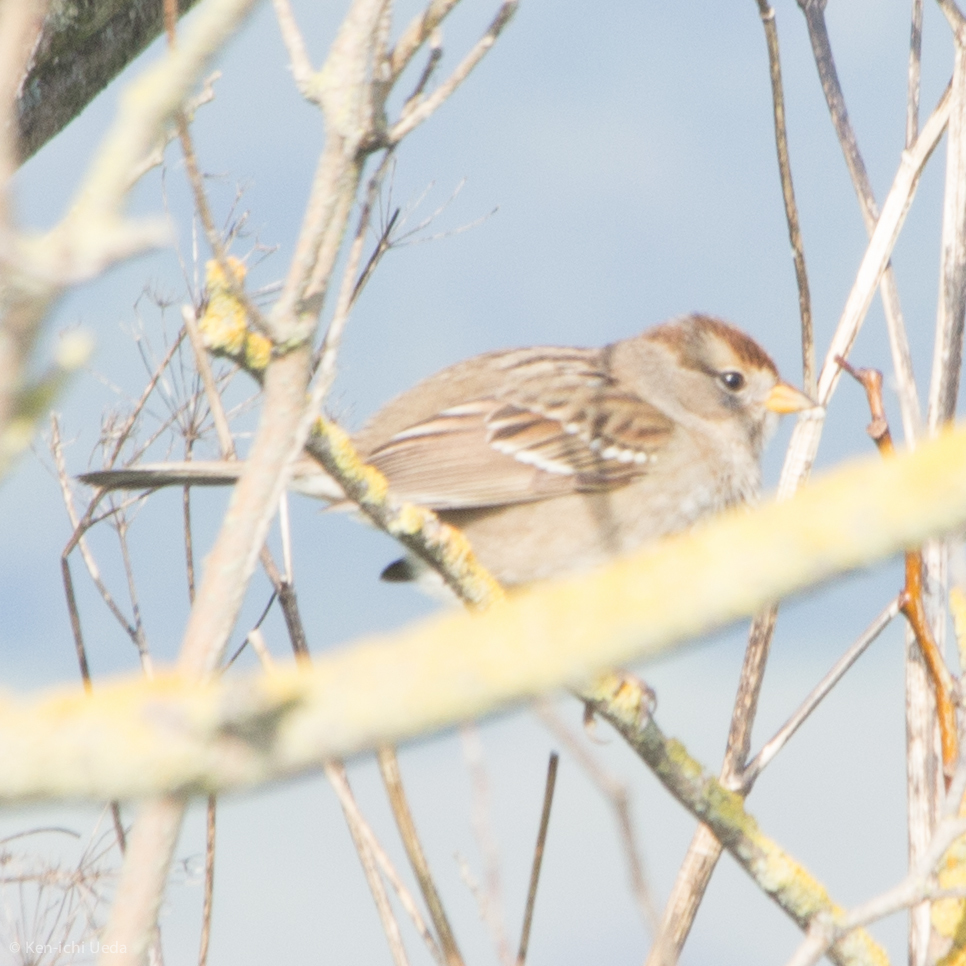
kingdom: Animalia
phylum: Chordata
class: Aves
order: Passeriformes
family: Passerellidae
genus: Zonotrichia
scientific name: Zonotrichia leucophrys
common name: White-crowned sparrow
